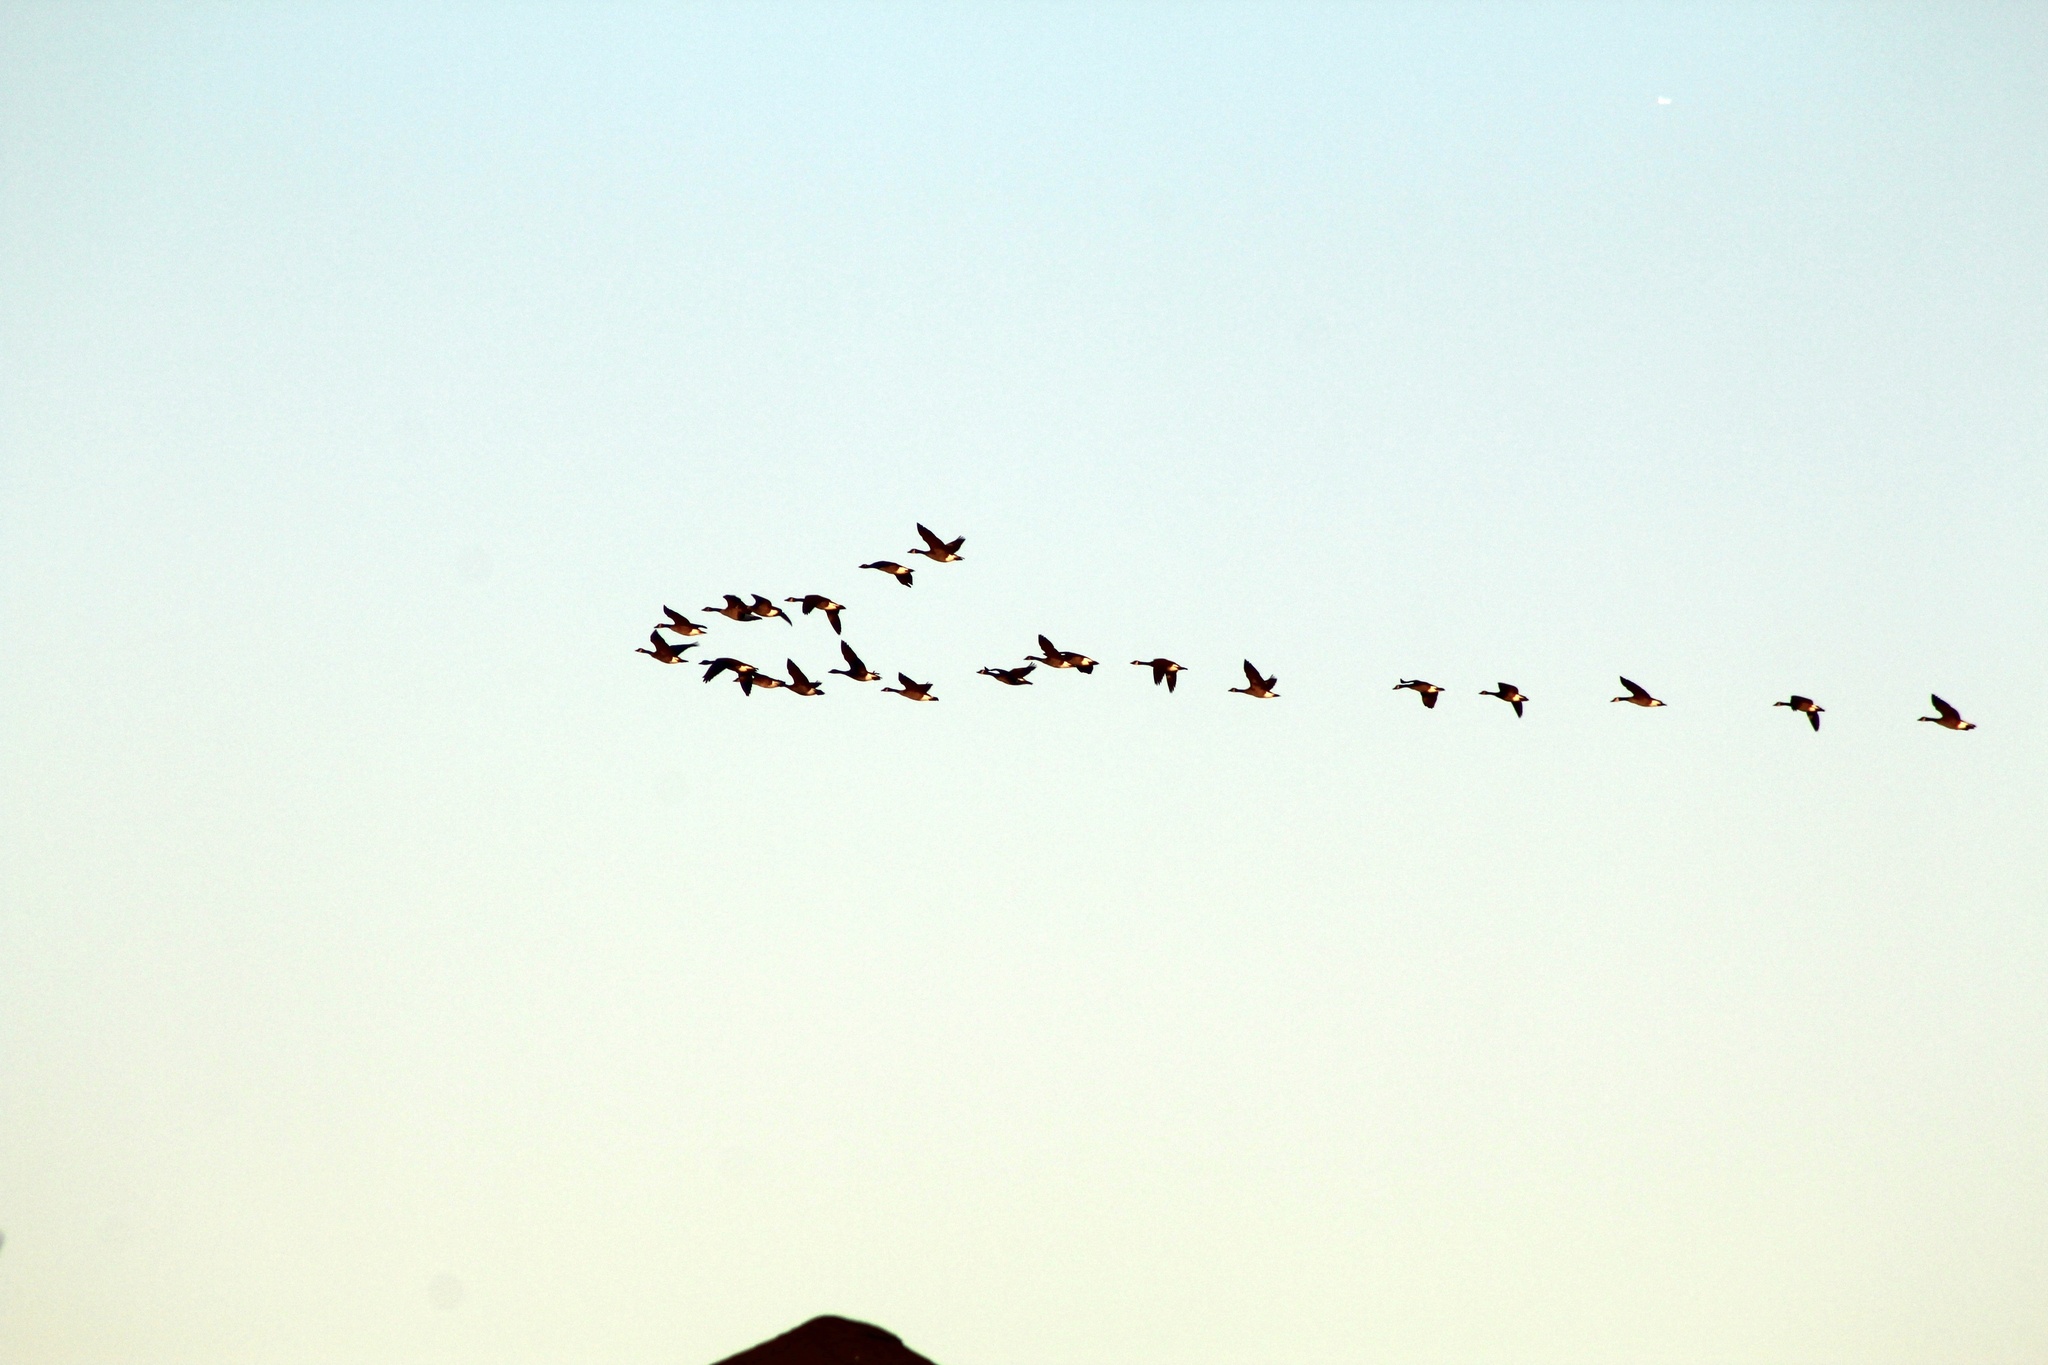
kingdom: Animalia
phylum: Chordata
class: Aves
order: Anseriformes
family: Anatidae
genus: Branta
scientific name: Branta canadensis
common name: Canada goose
